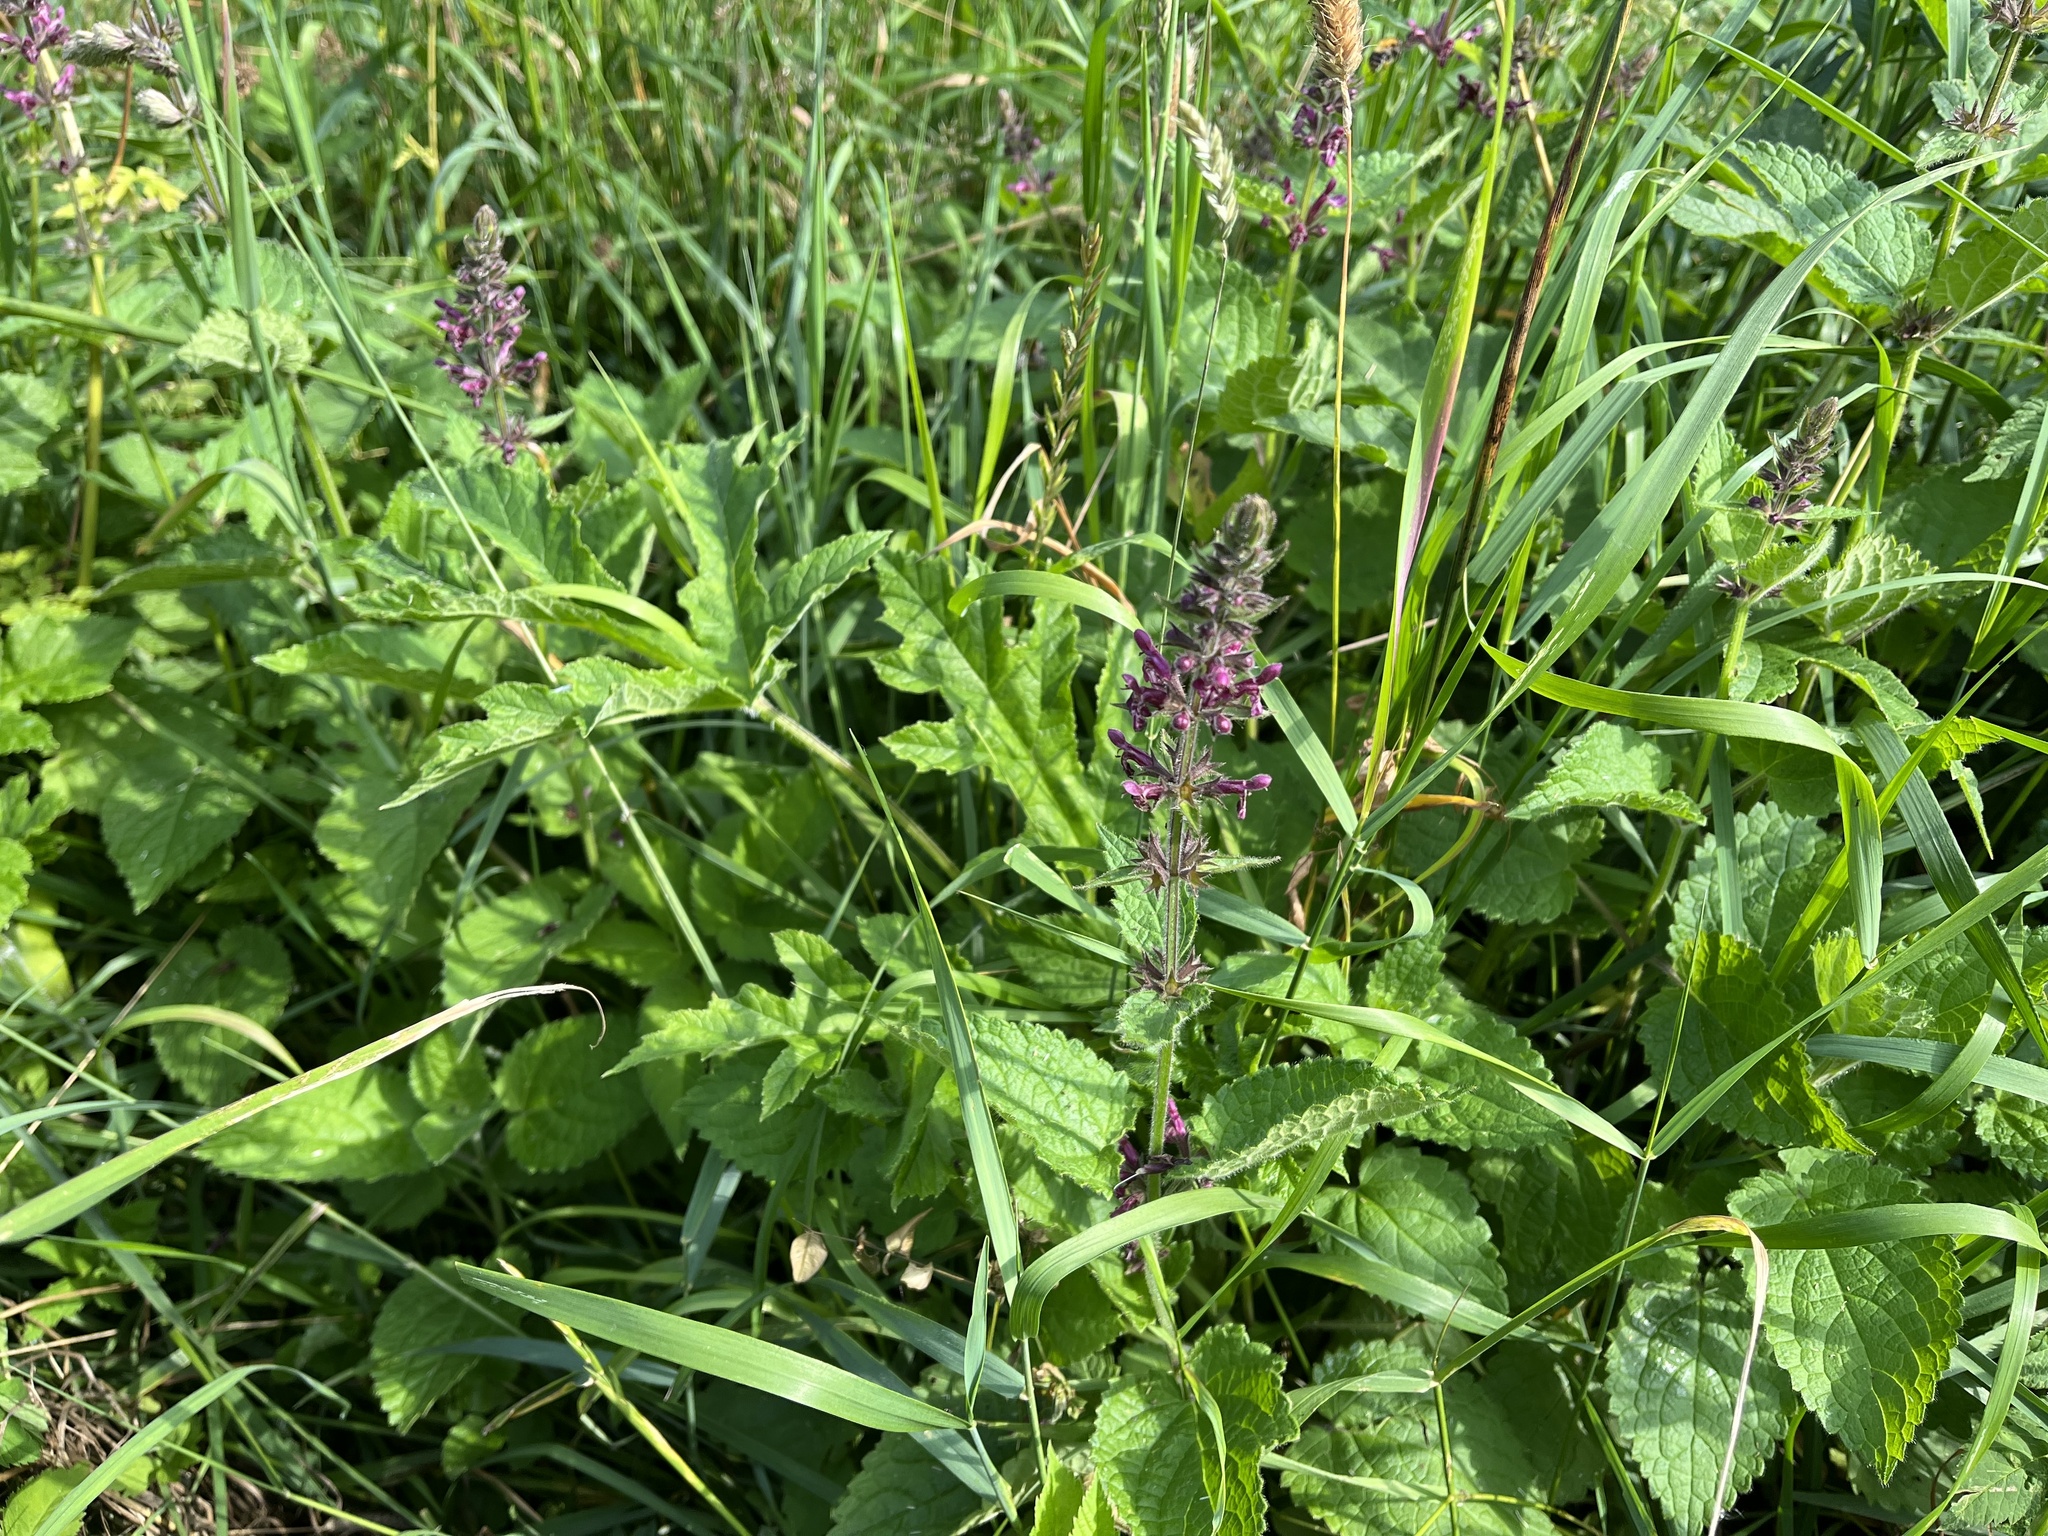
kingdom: Plantae
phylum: Tracheophyta
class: Magnoliopsida
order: Lamiales
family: Lamiaceae
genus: Stachys
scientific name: Stachys sylvatica
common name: Hedge woundwort
